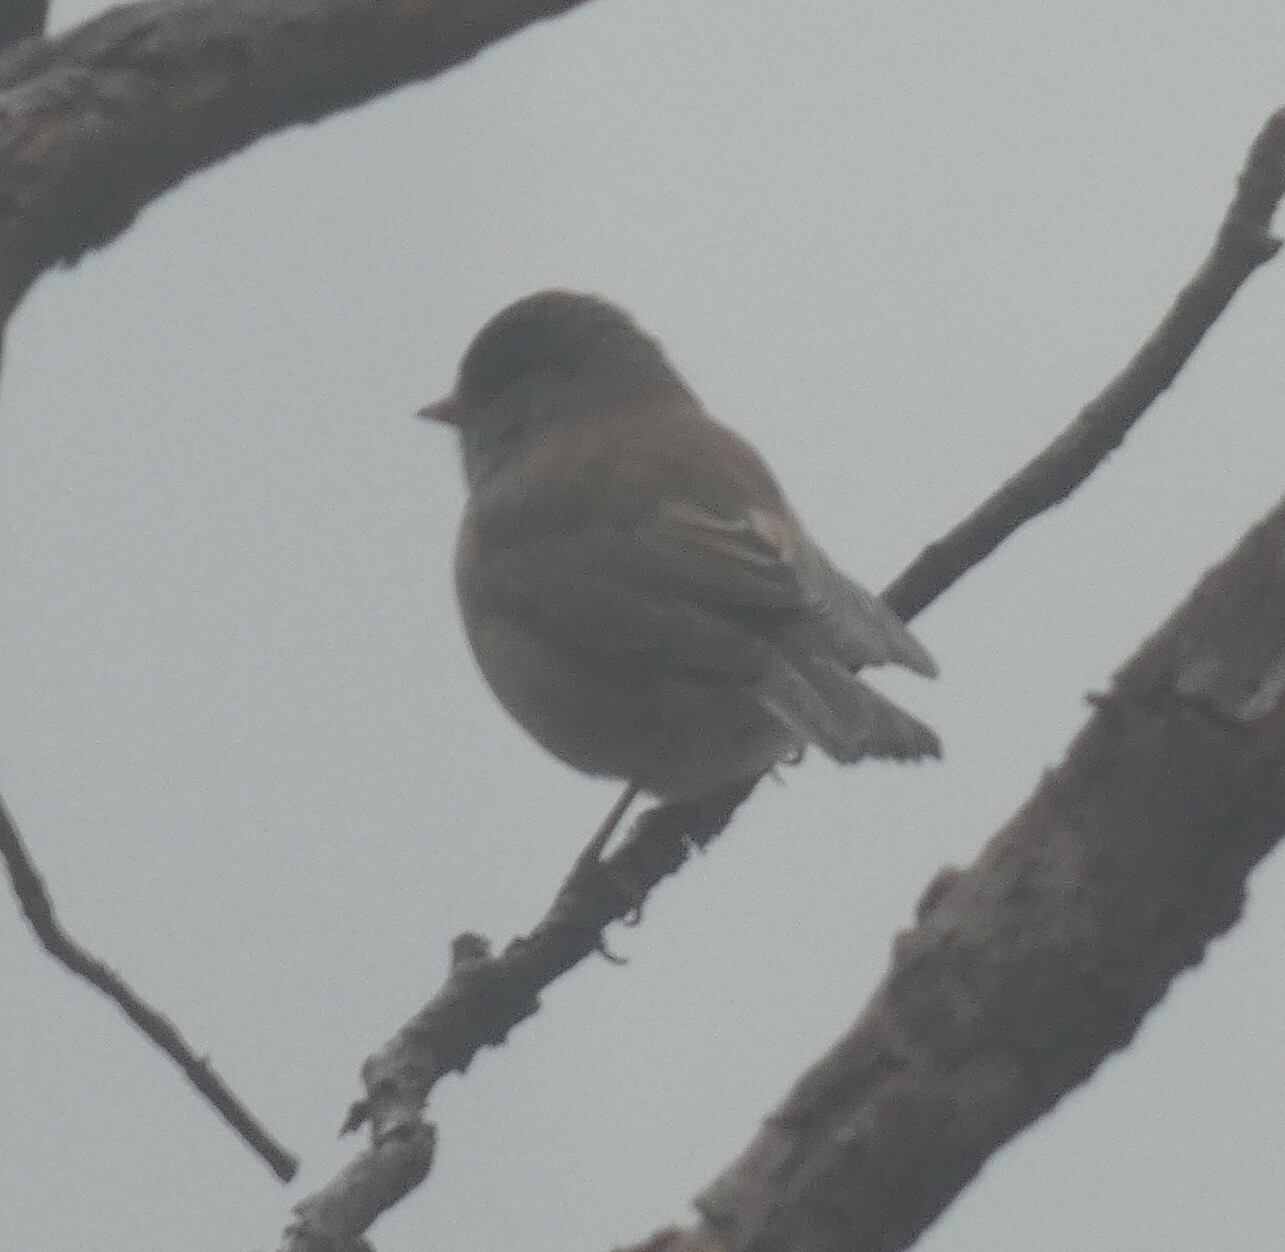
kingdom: Animalia
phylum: Chordata
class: Aves
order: Passeriformes
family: Passerellidae
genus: Junco
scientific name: Junco hyemalis
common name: Dark-eyed junco
